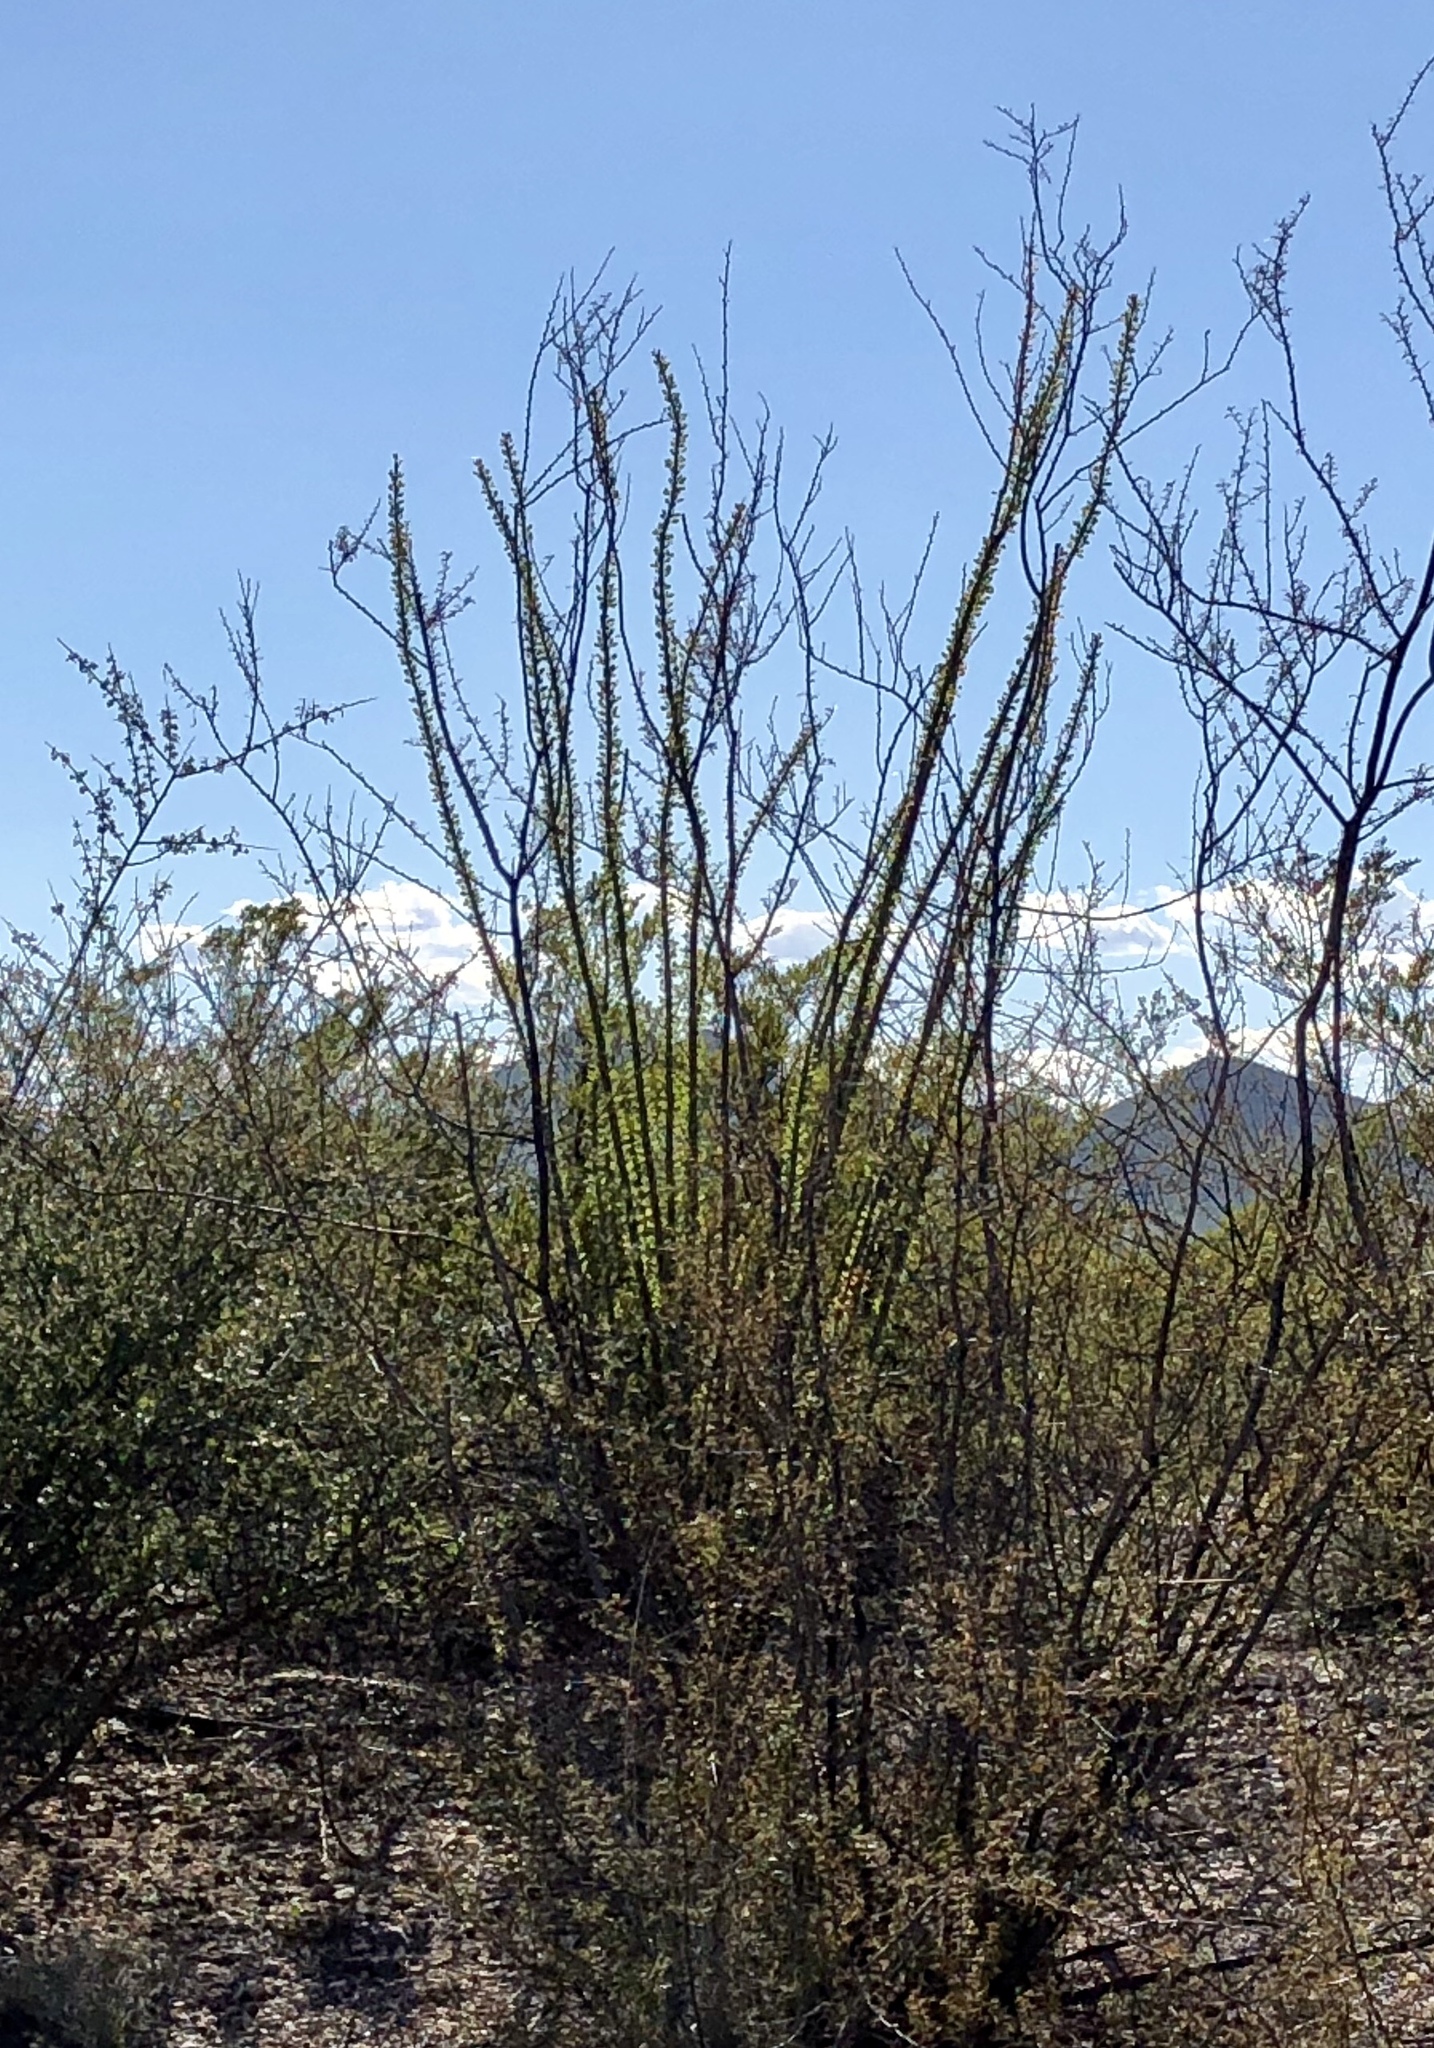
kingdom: Plantae
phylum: Tracheophyta
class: Magnoliopsida
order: Ericales
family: Fouquieriaceae
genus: Fouquieria
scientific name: Fouquieria splendens
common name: Vine-cactus
